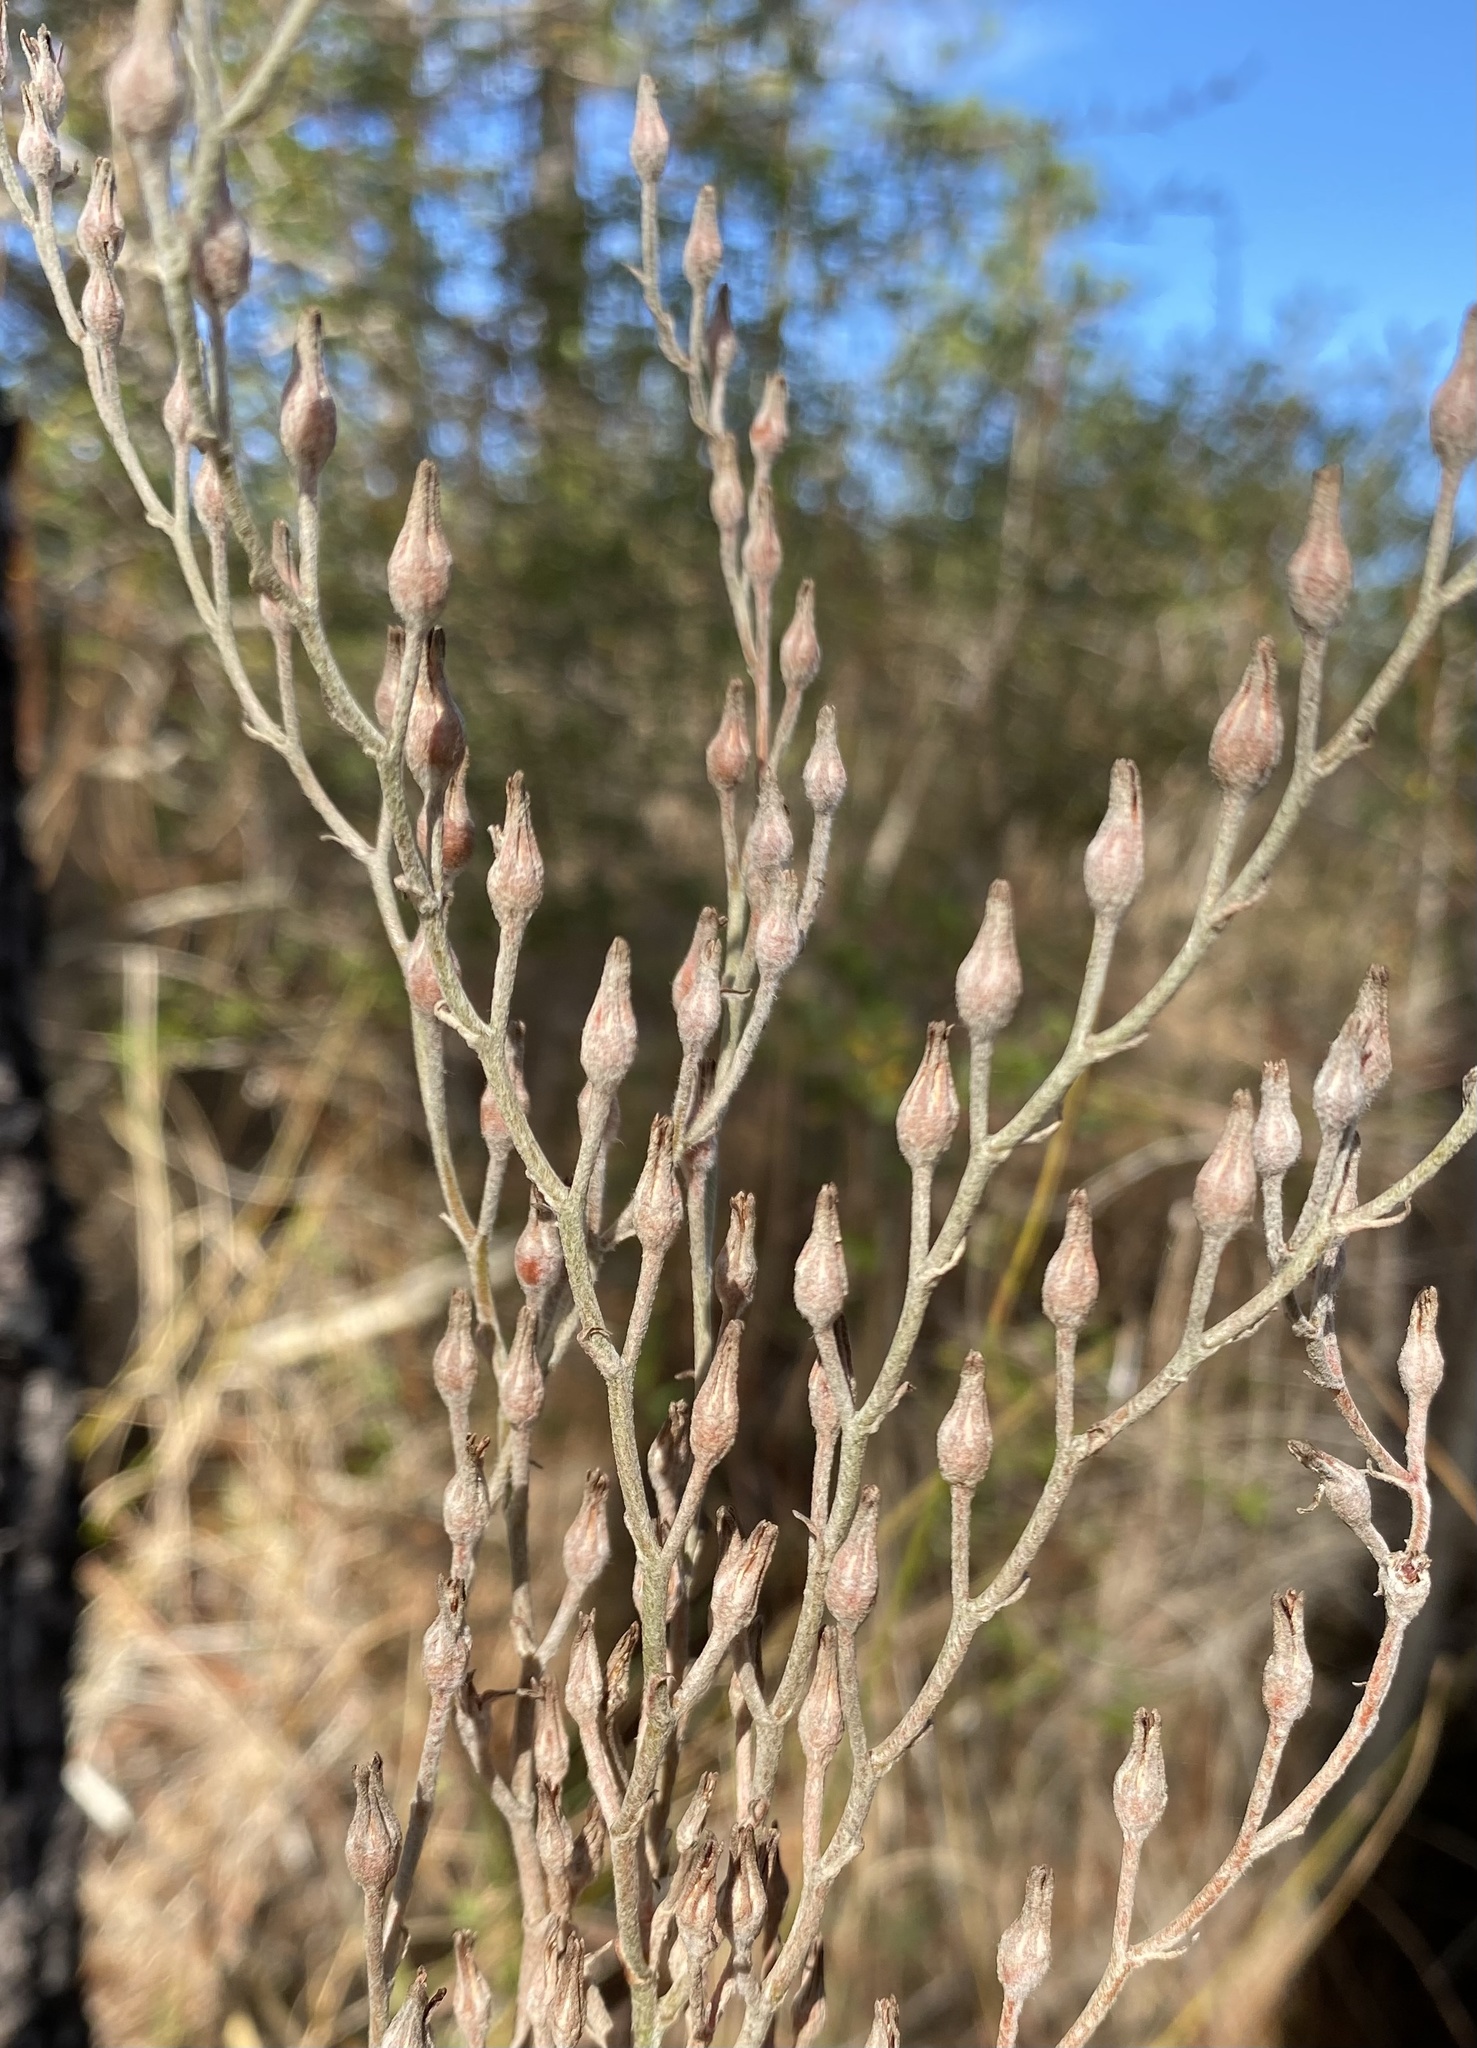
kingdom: Plantae
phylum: Tracheophyta
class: Liliopsida
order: Dioscoreales
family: Nartheciaceae
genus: Lophiola
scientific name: Lophiola aurea
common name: Golden-crest
